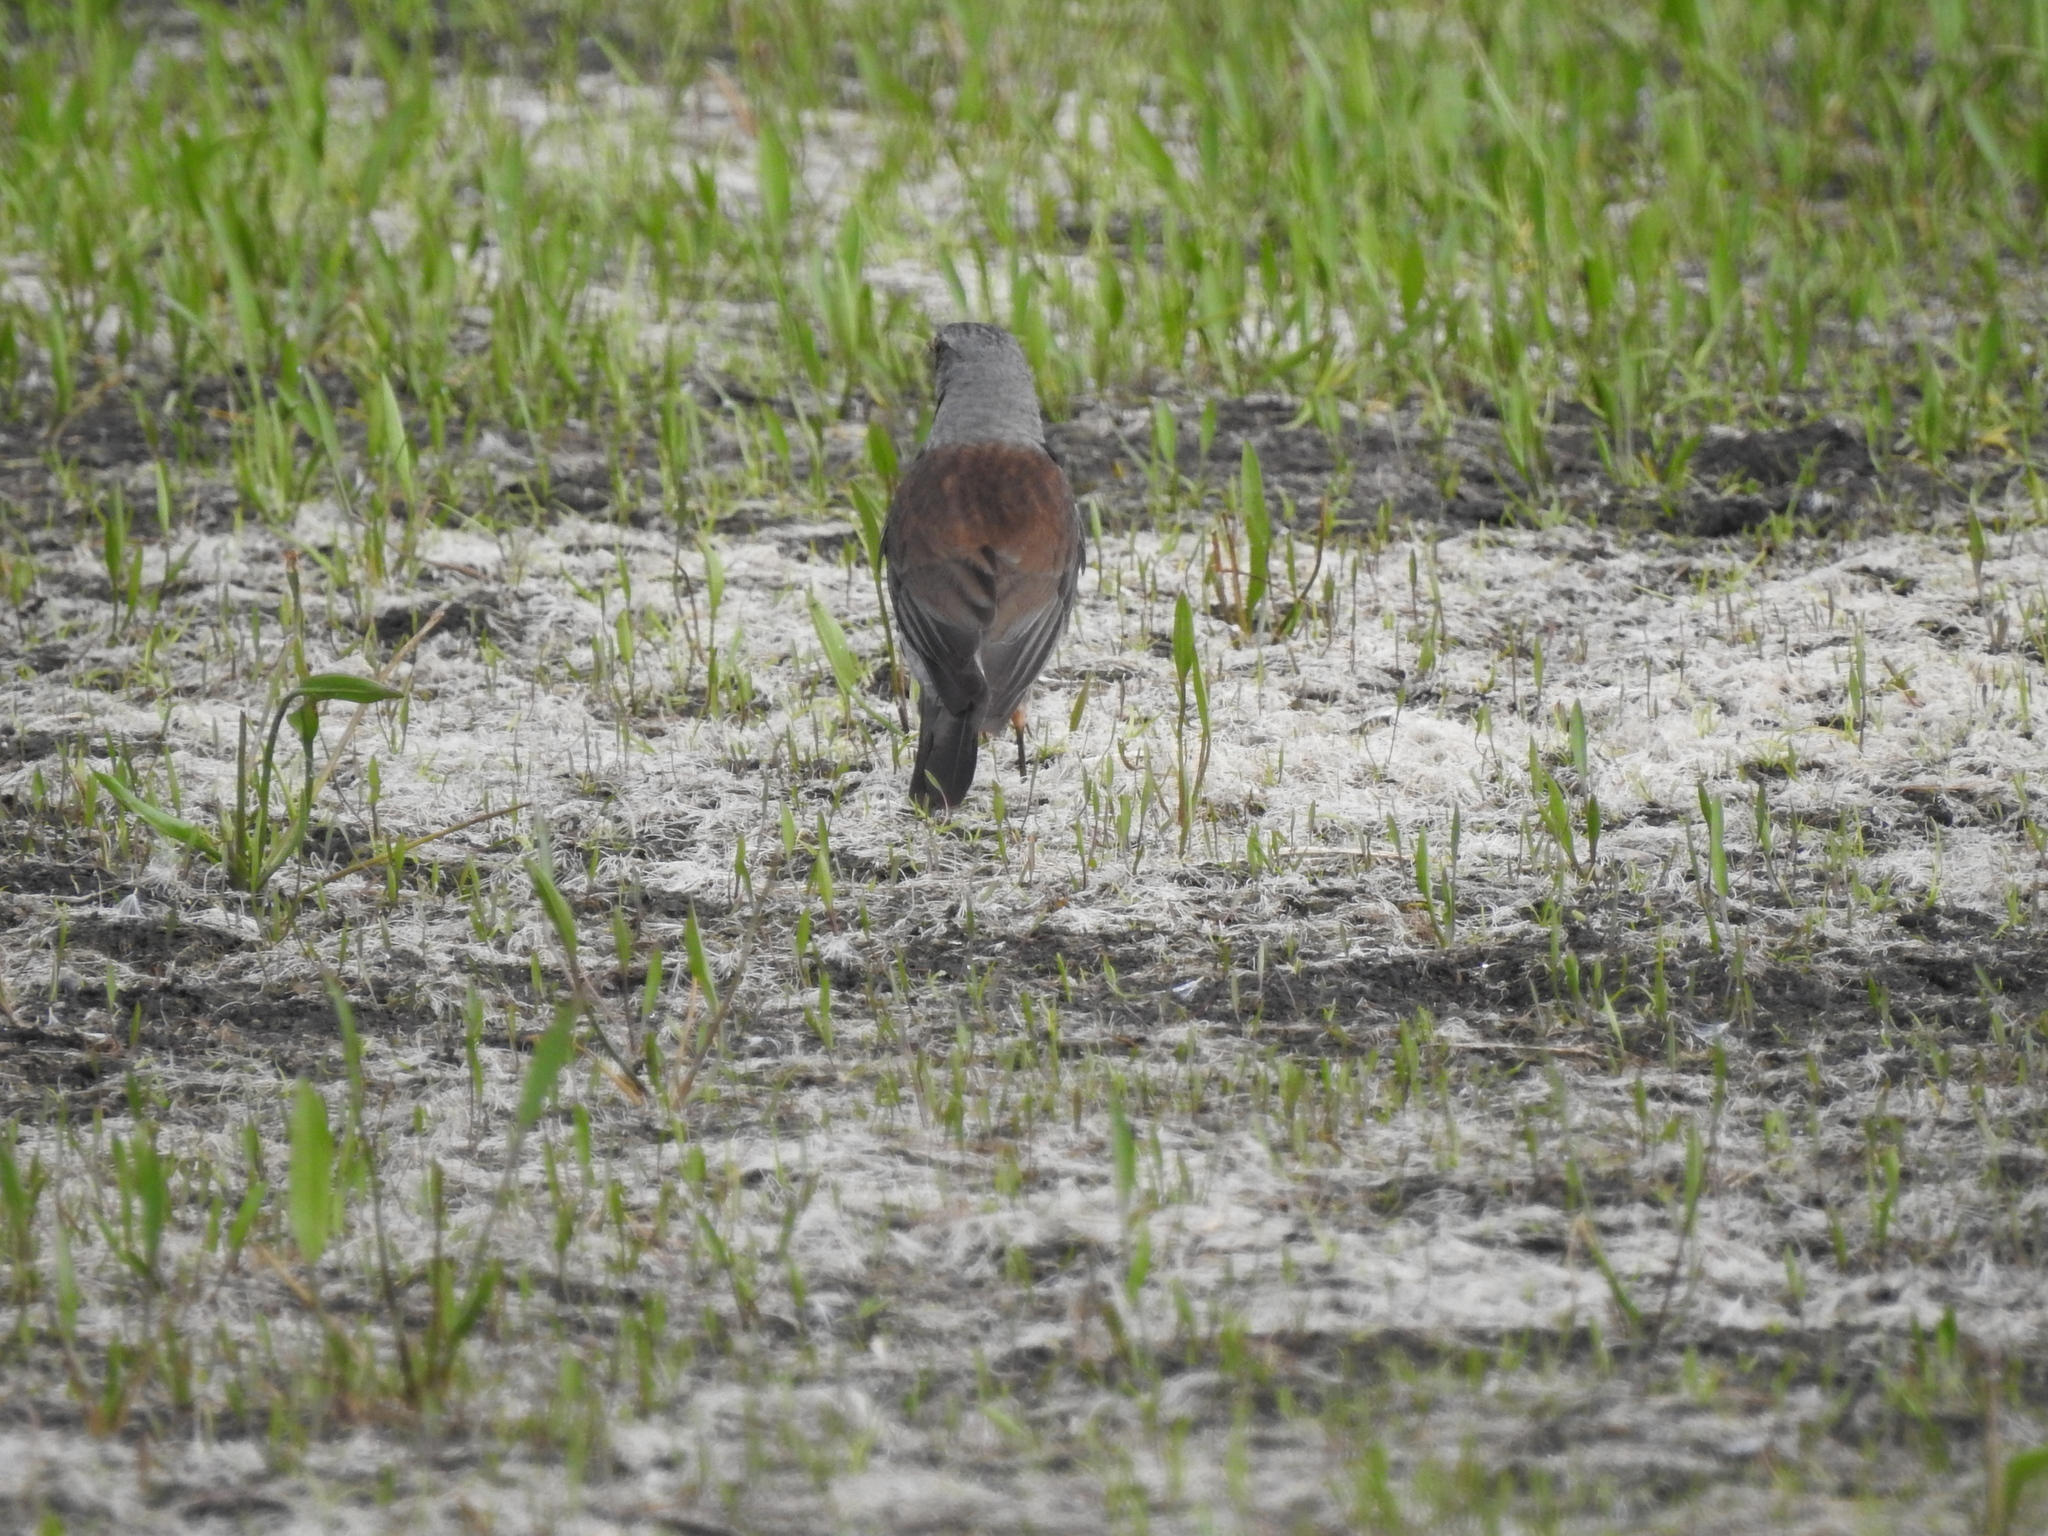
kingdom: Animalia
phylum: Chordata
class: Aves
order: Passeriformes
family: Turdidae
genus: Turdus
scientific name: Turdus pilaris
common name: Fieldfare
